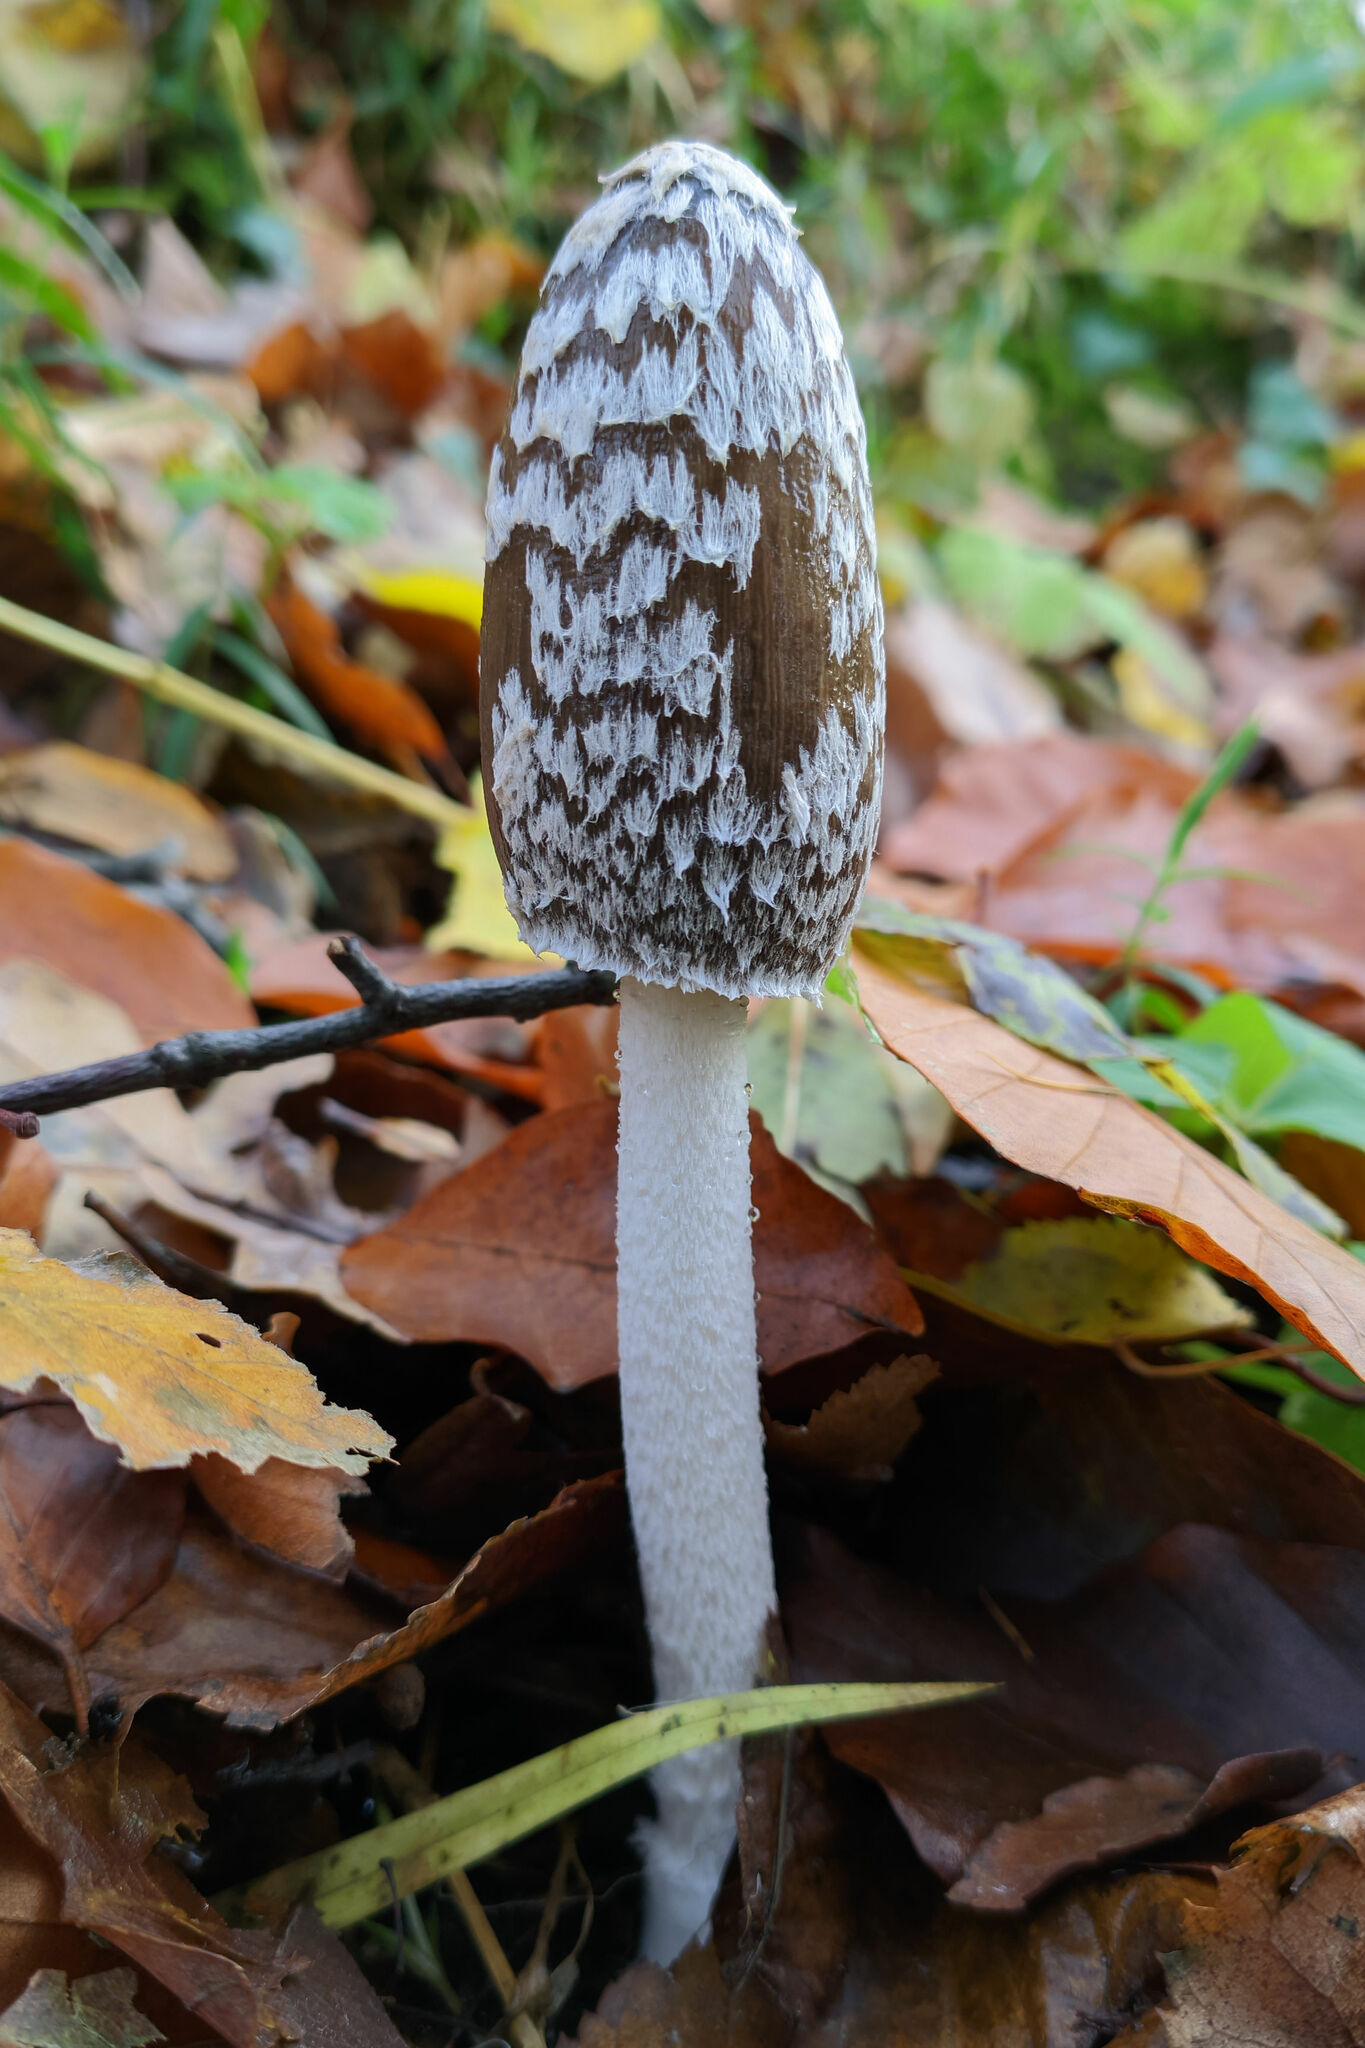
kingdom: Fungi
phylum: Basidiomycota
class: Agaricomycetes
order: Agaricales
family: Psathyrellaceae
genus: Coprinopsis
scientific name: Coprinopsis picacea
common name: Magpie inkcap
